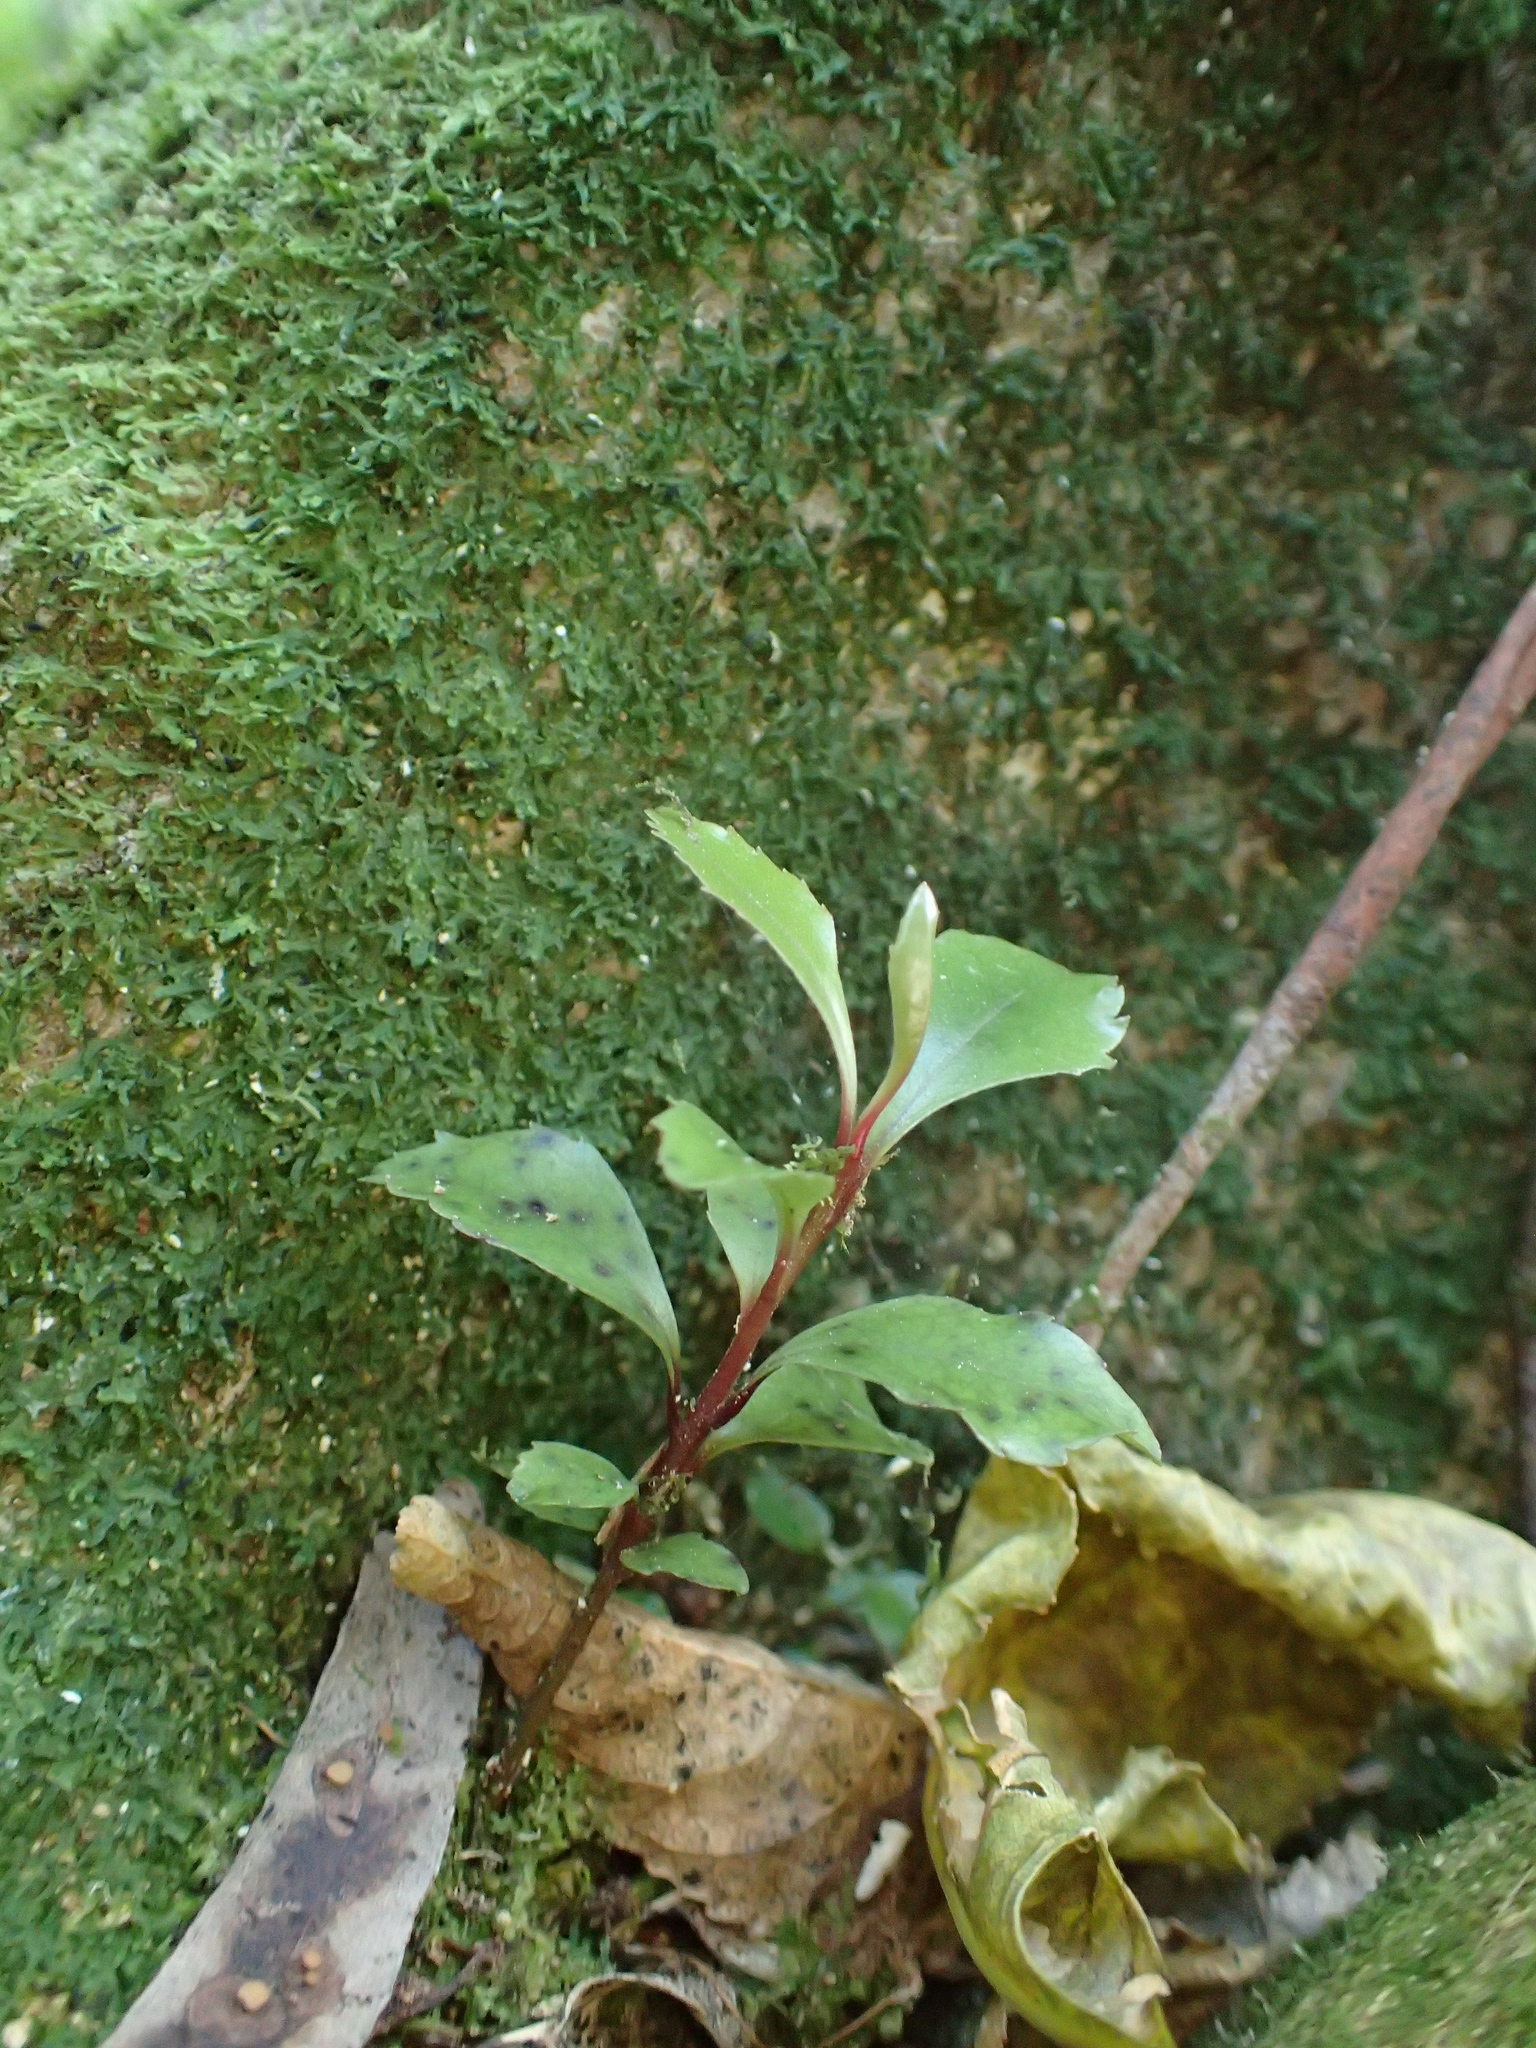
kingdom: Plantae
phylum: Tracheophyta
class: Magnoliopsida
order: Ericales
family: Primulaceae
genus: Myrsine
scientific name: Myrsine australis
